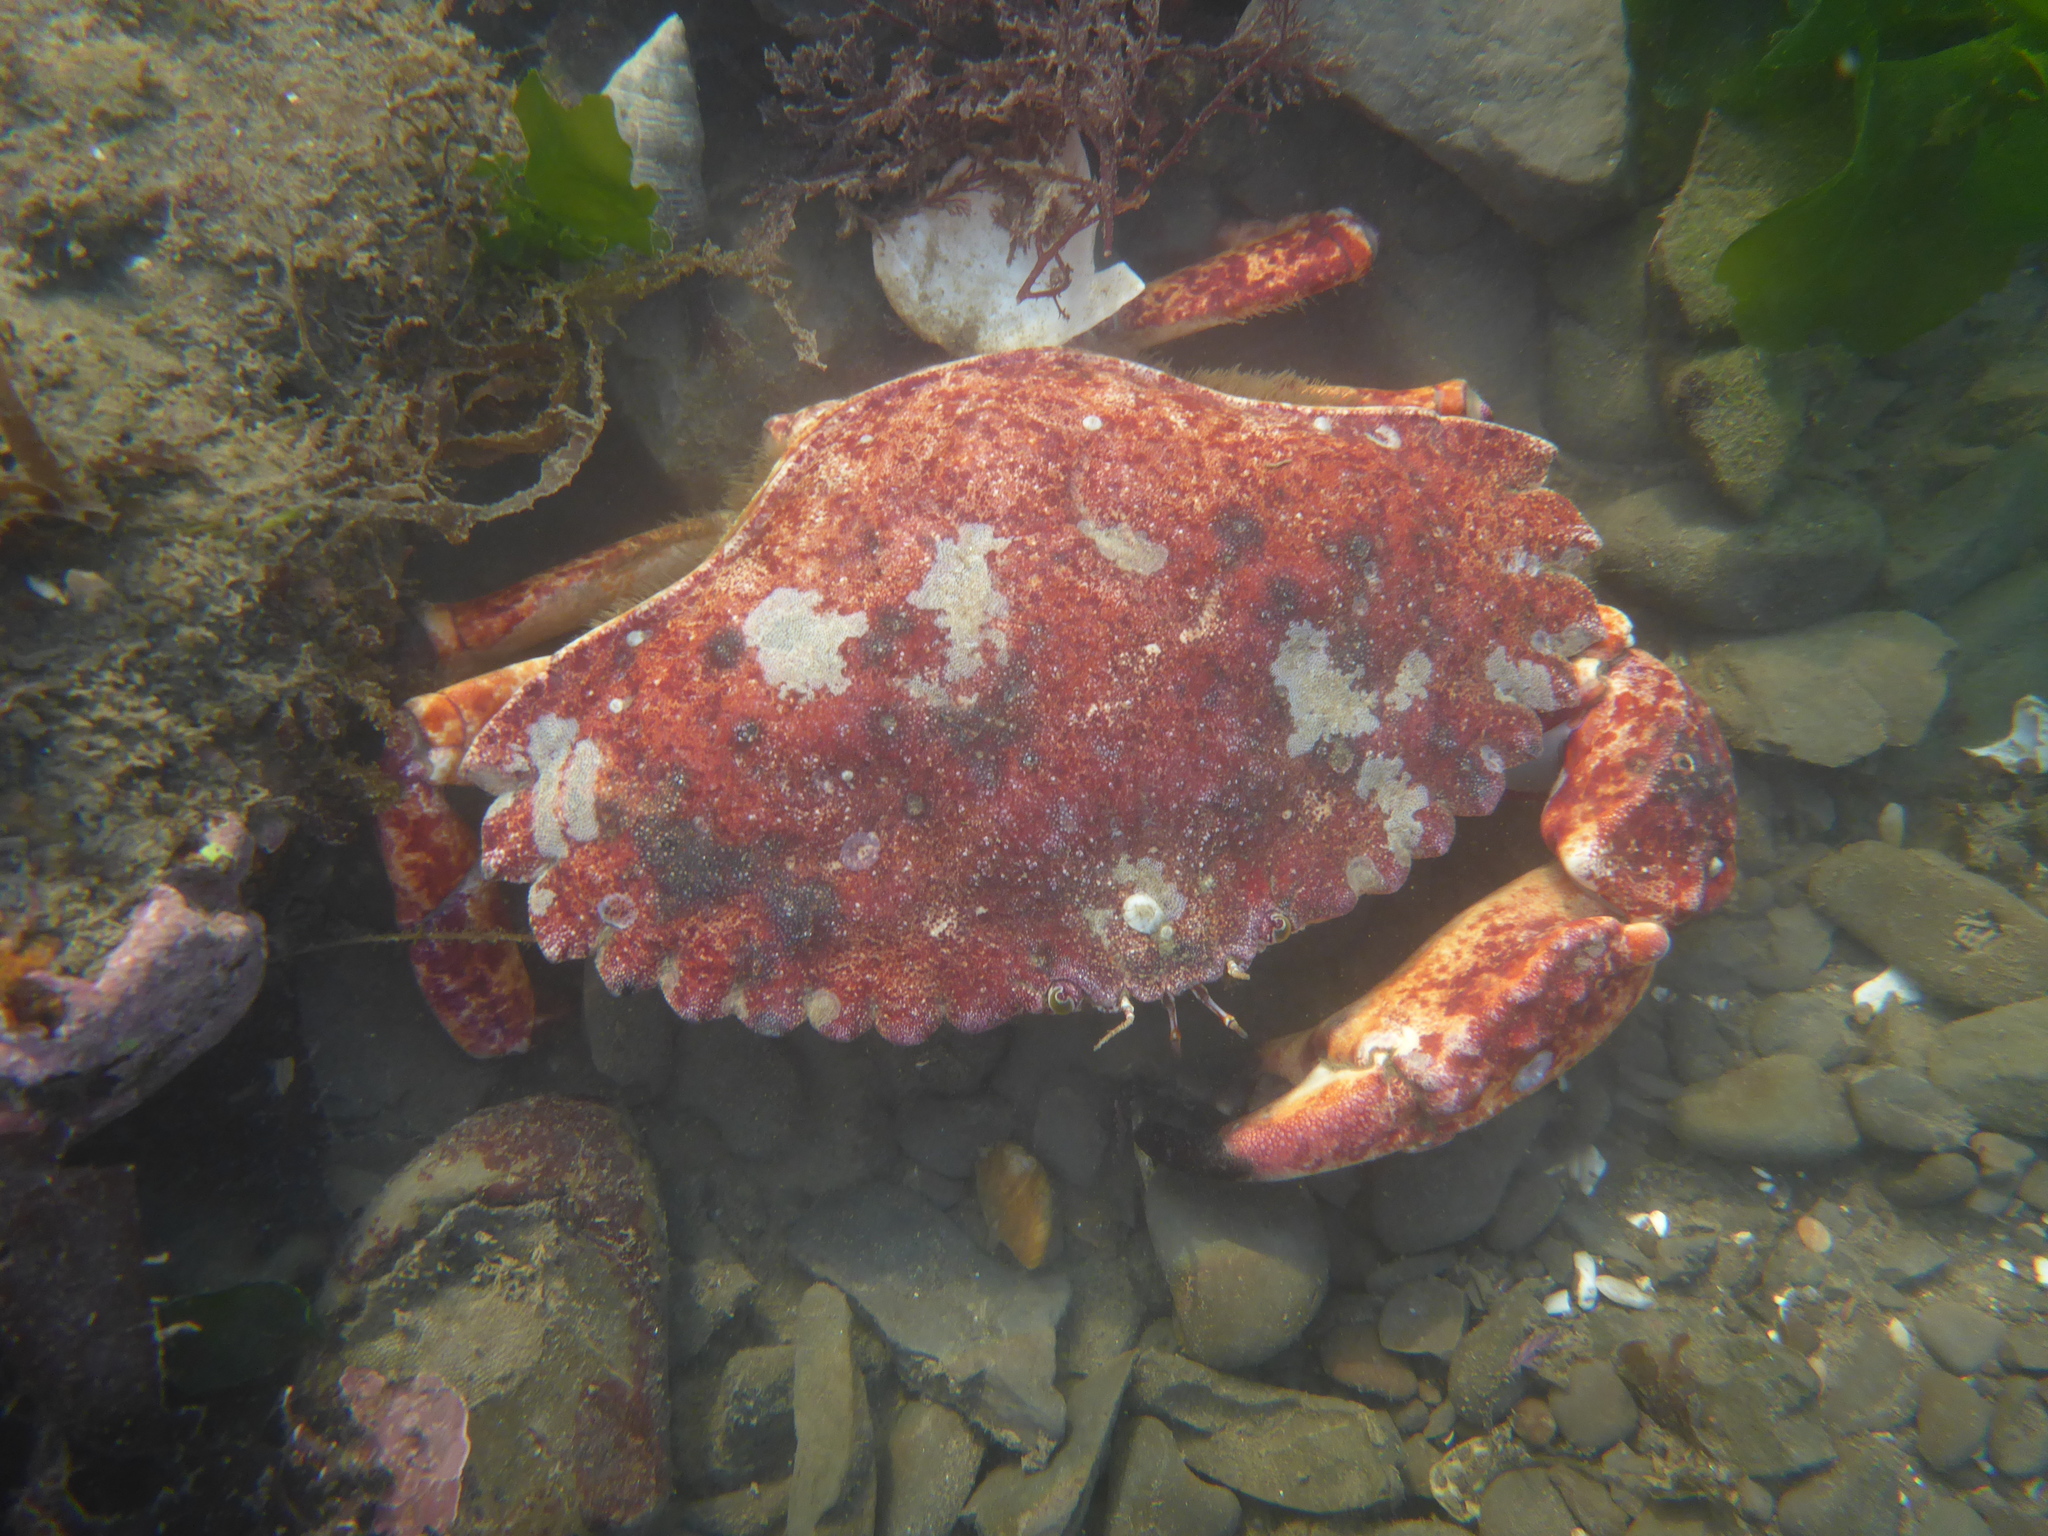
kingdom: Animalia
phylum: Arthropoda
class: Malacostraca
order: Decapoda
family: Cancridae
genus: Cancer
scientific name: Cancer productus
